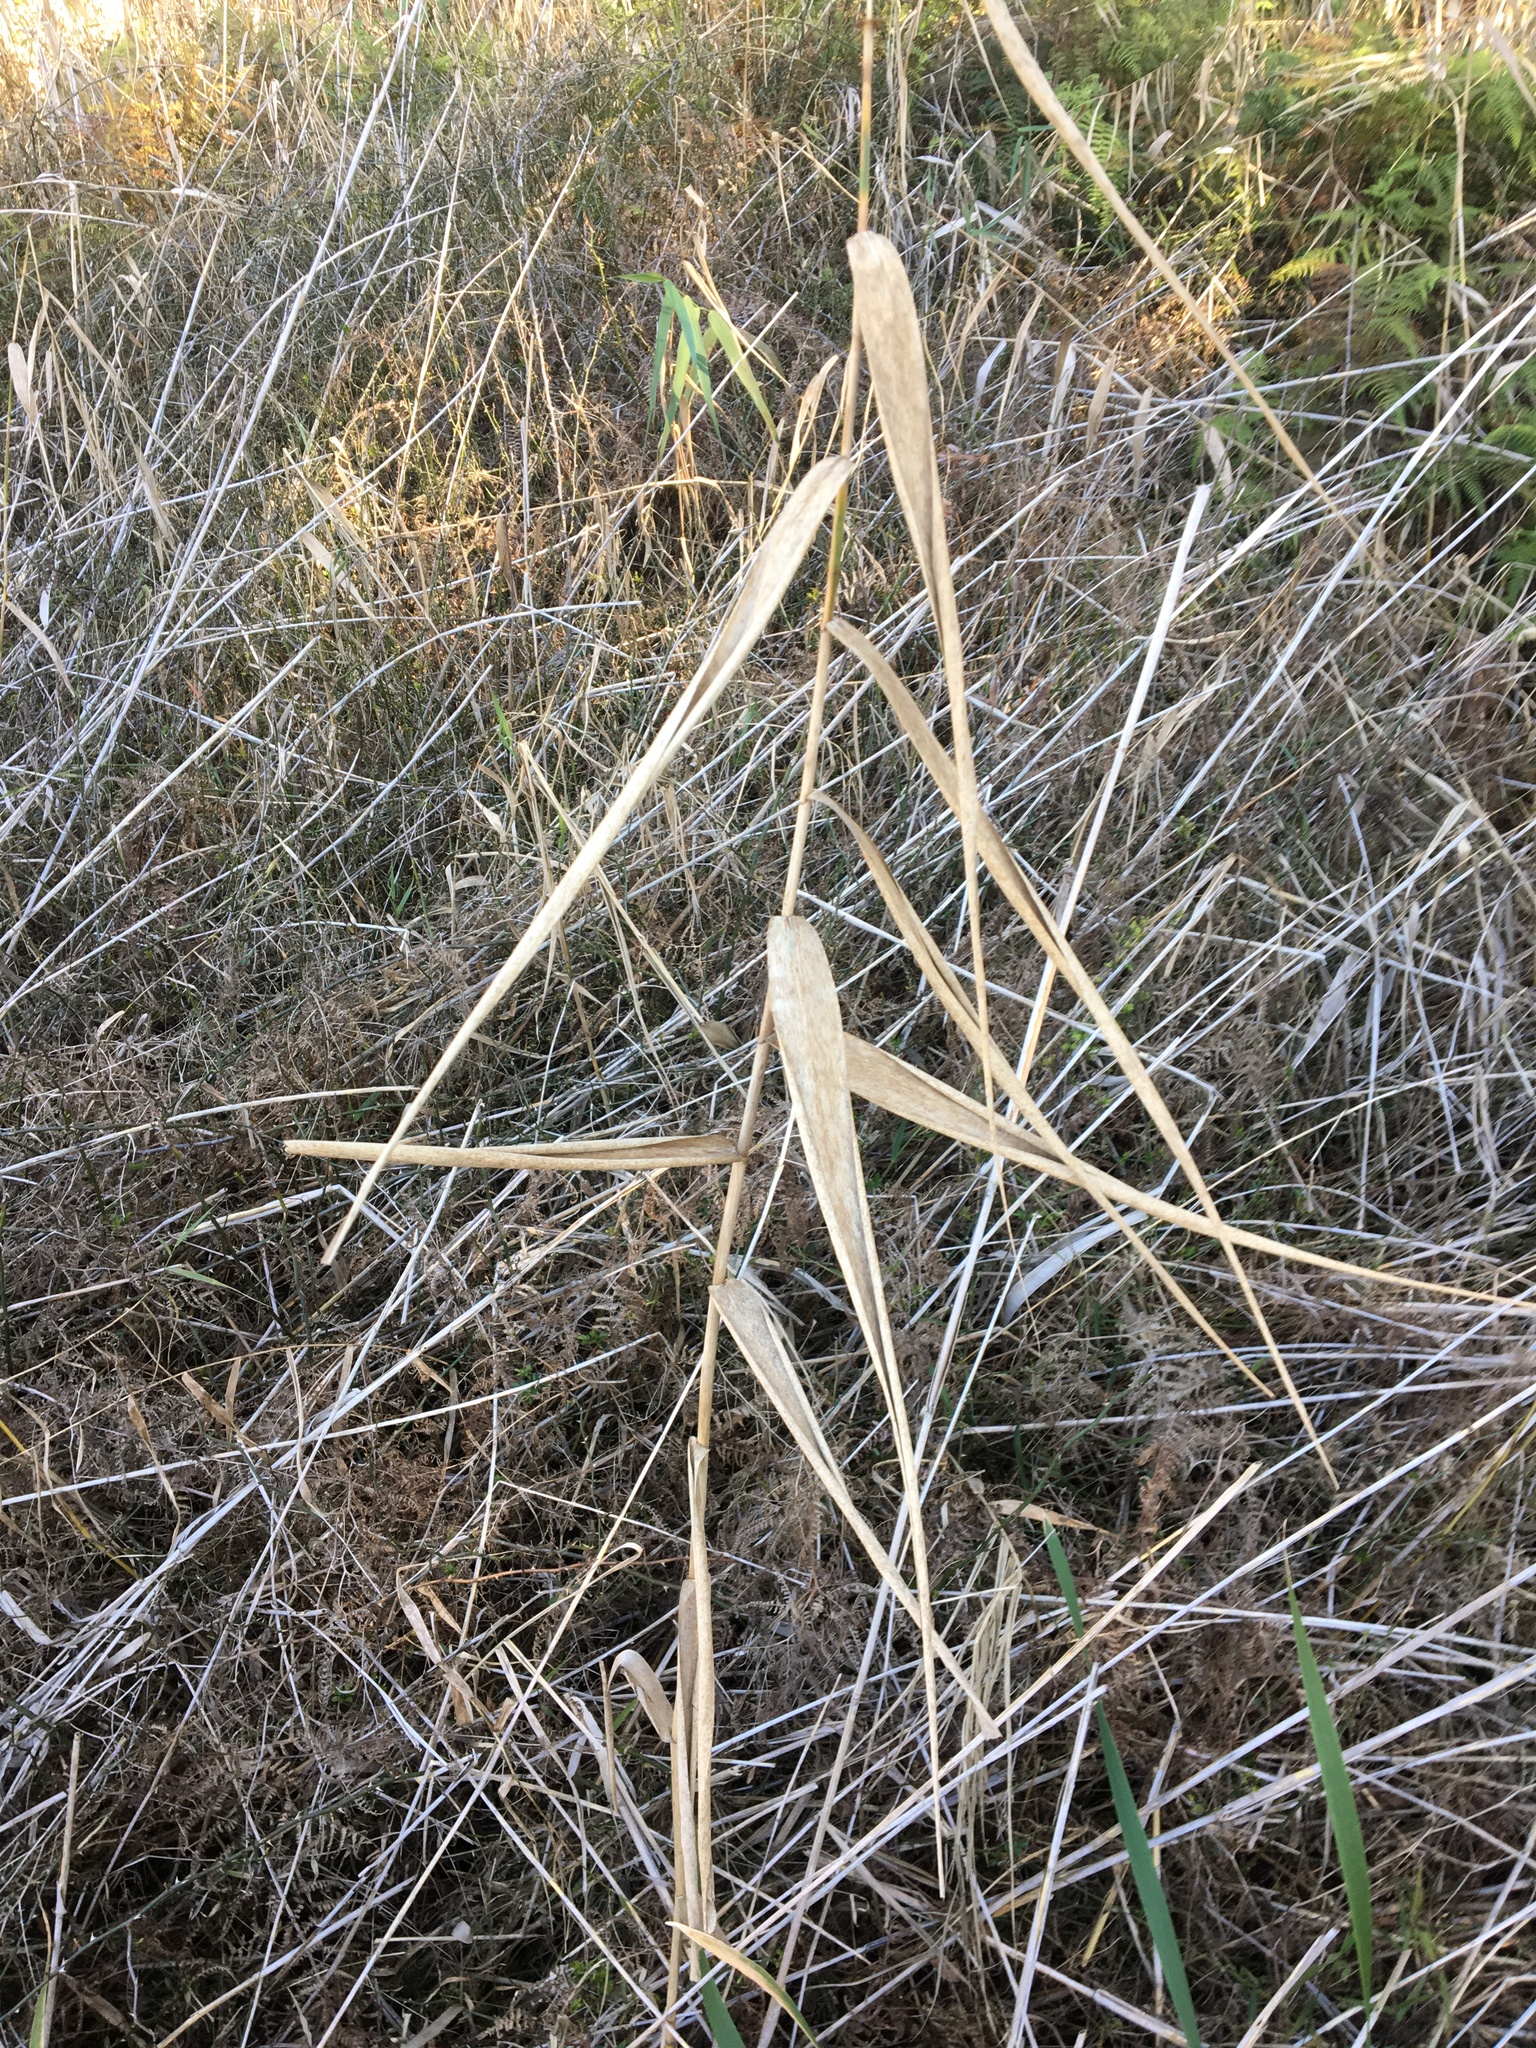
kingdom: Plantae
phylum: Tracheophyta
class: Liliopsida
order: Poales
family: Poaceae
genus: Phragmites
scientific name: Phragmites australis
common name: Common reed
